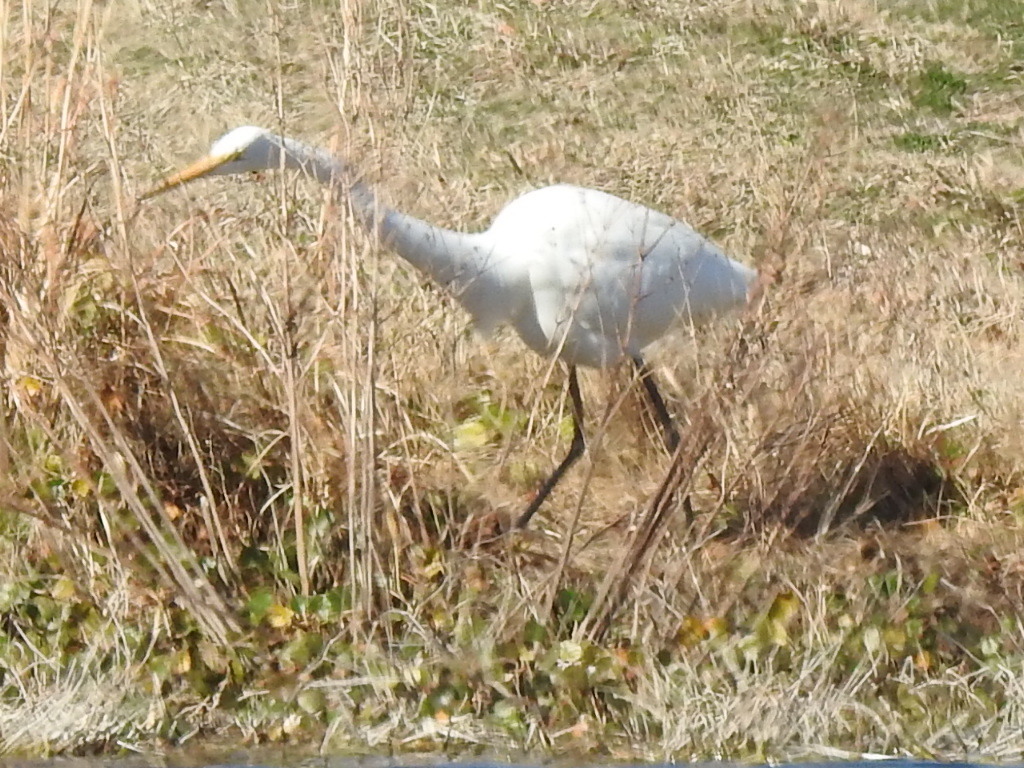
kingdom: Animalia
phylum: Chordata
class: Aves
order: Pelecaniformes
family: Ardeidae
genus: Ardea
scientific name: Ardea alba
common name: Great egret
